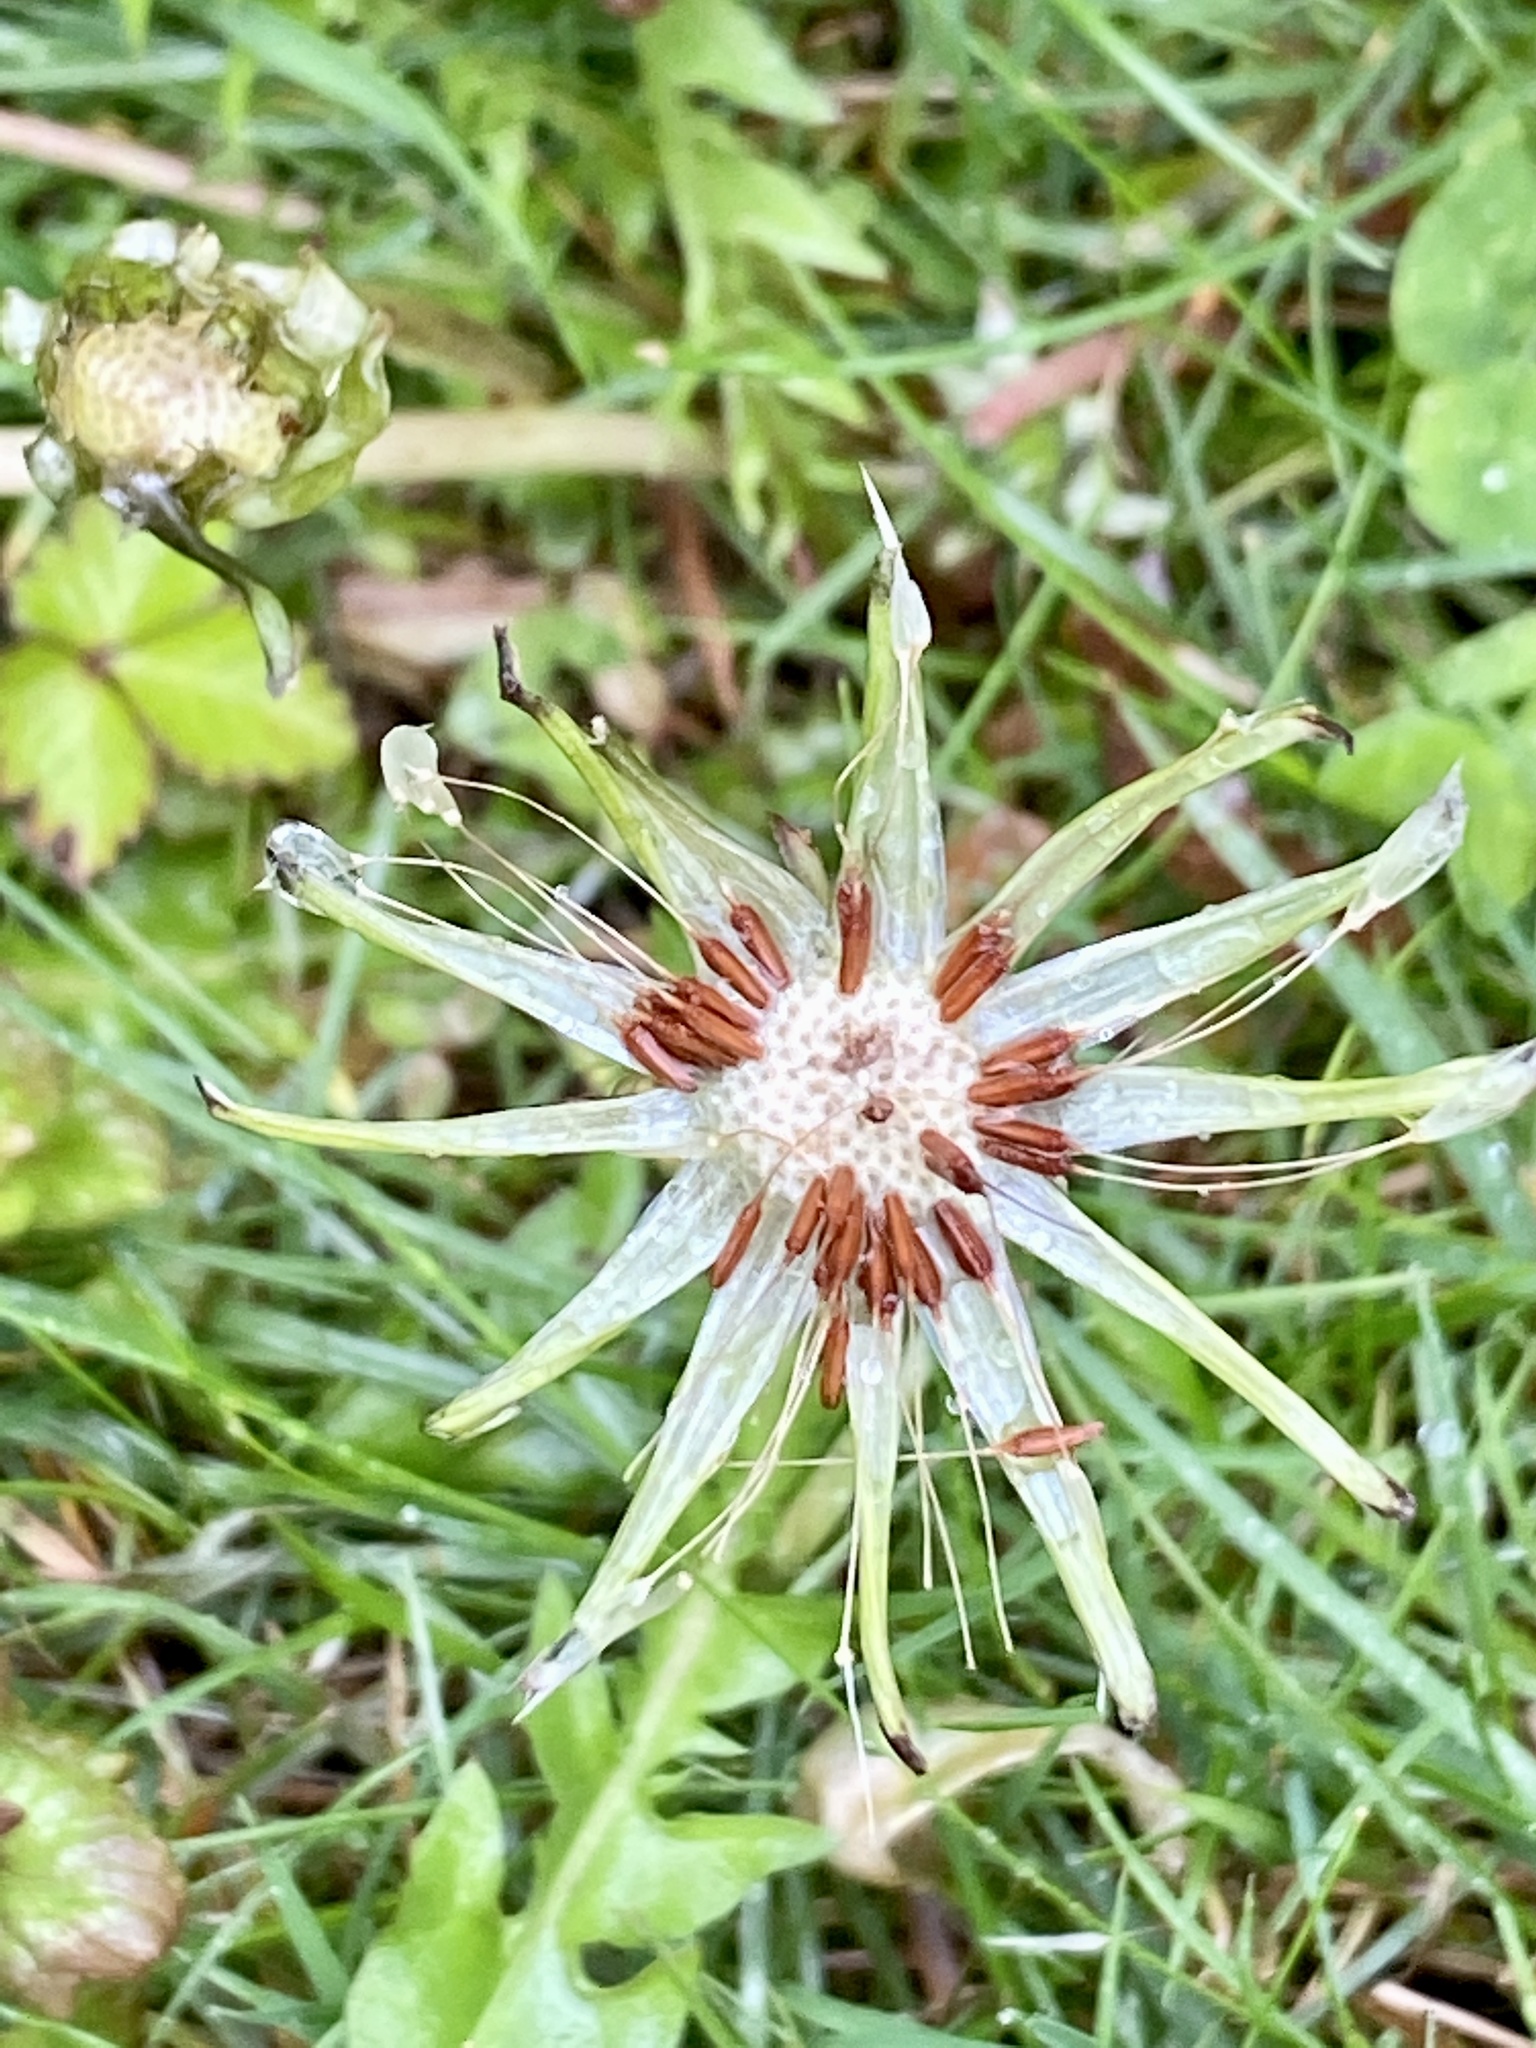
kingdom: Plantae
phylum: Tracheophyta
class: Magnoliopsida
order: Asterales
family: Asteraceae
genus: Taraxacum
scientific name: Taraxacum erythrospermum
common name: Rock dandelion
